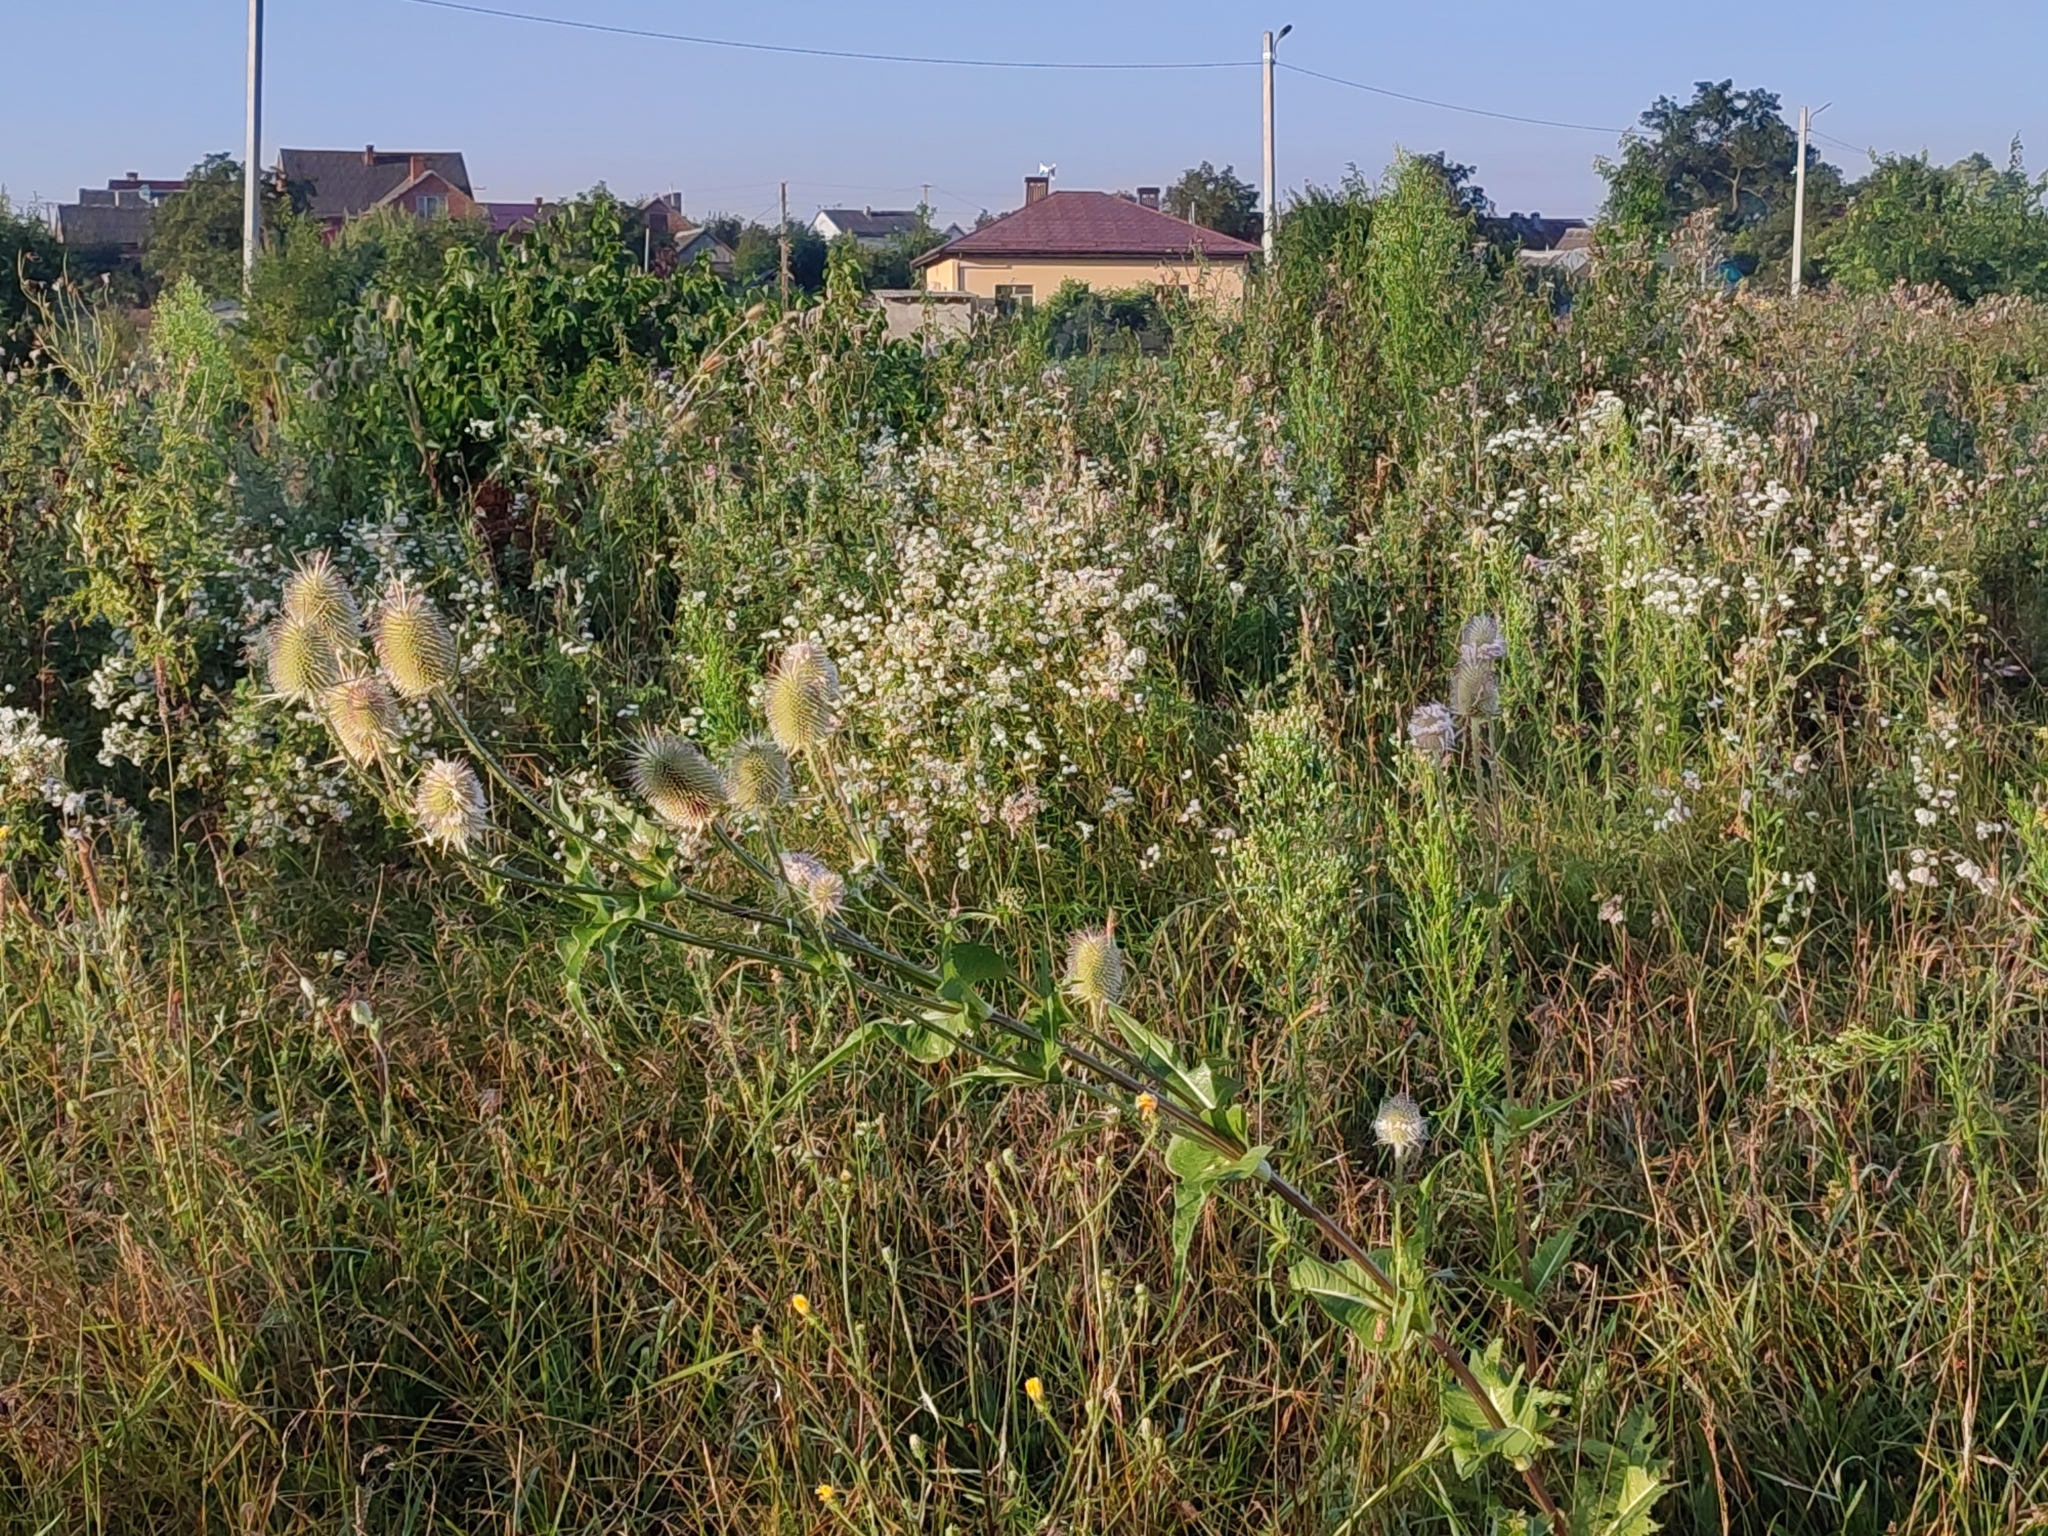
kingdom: Plantae
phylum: Tracheophyta
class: Magnoliopsida
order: Dipsacales
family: Caprifoliaceae
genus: Dipsacus
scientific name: Dipsacus laciniatus
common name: Cut-leaved teasel
